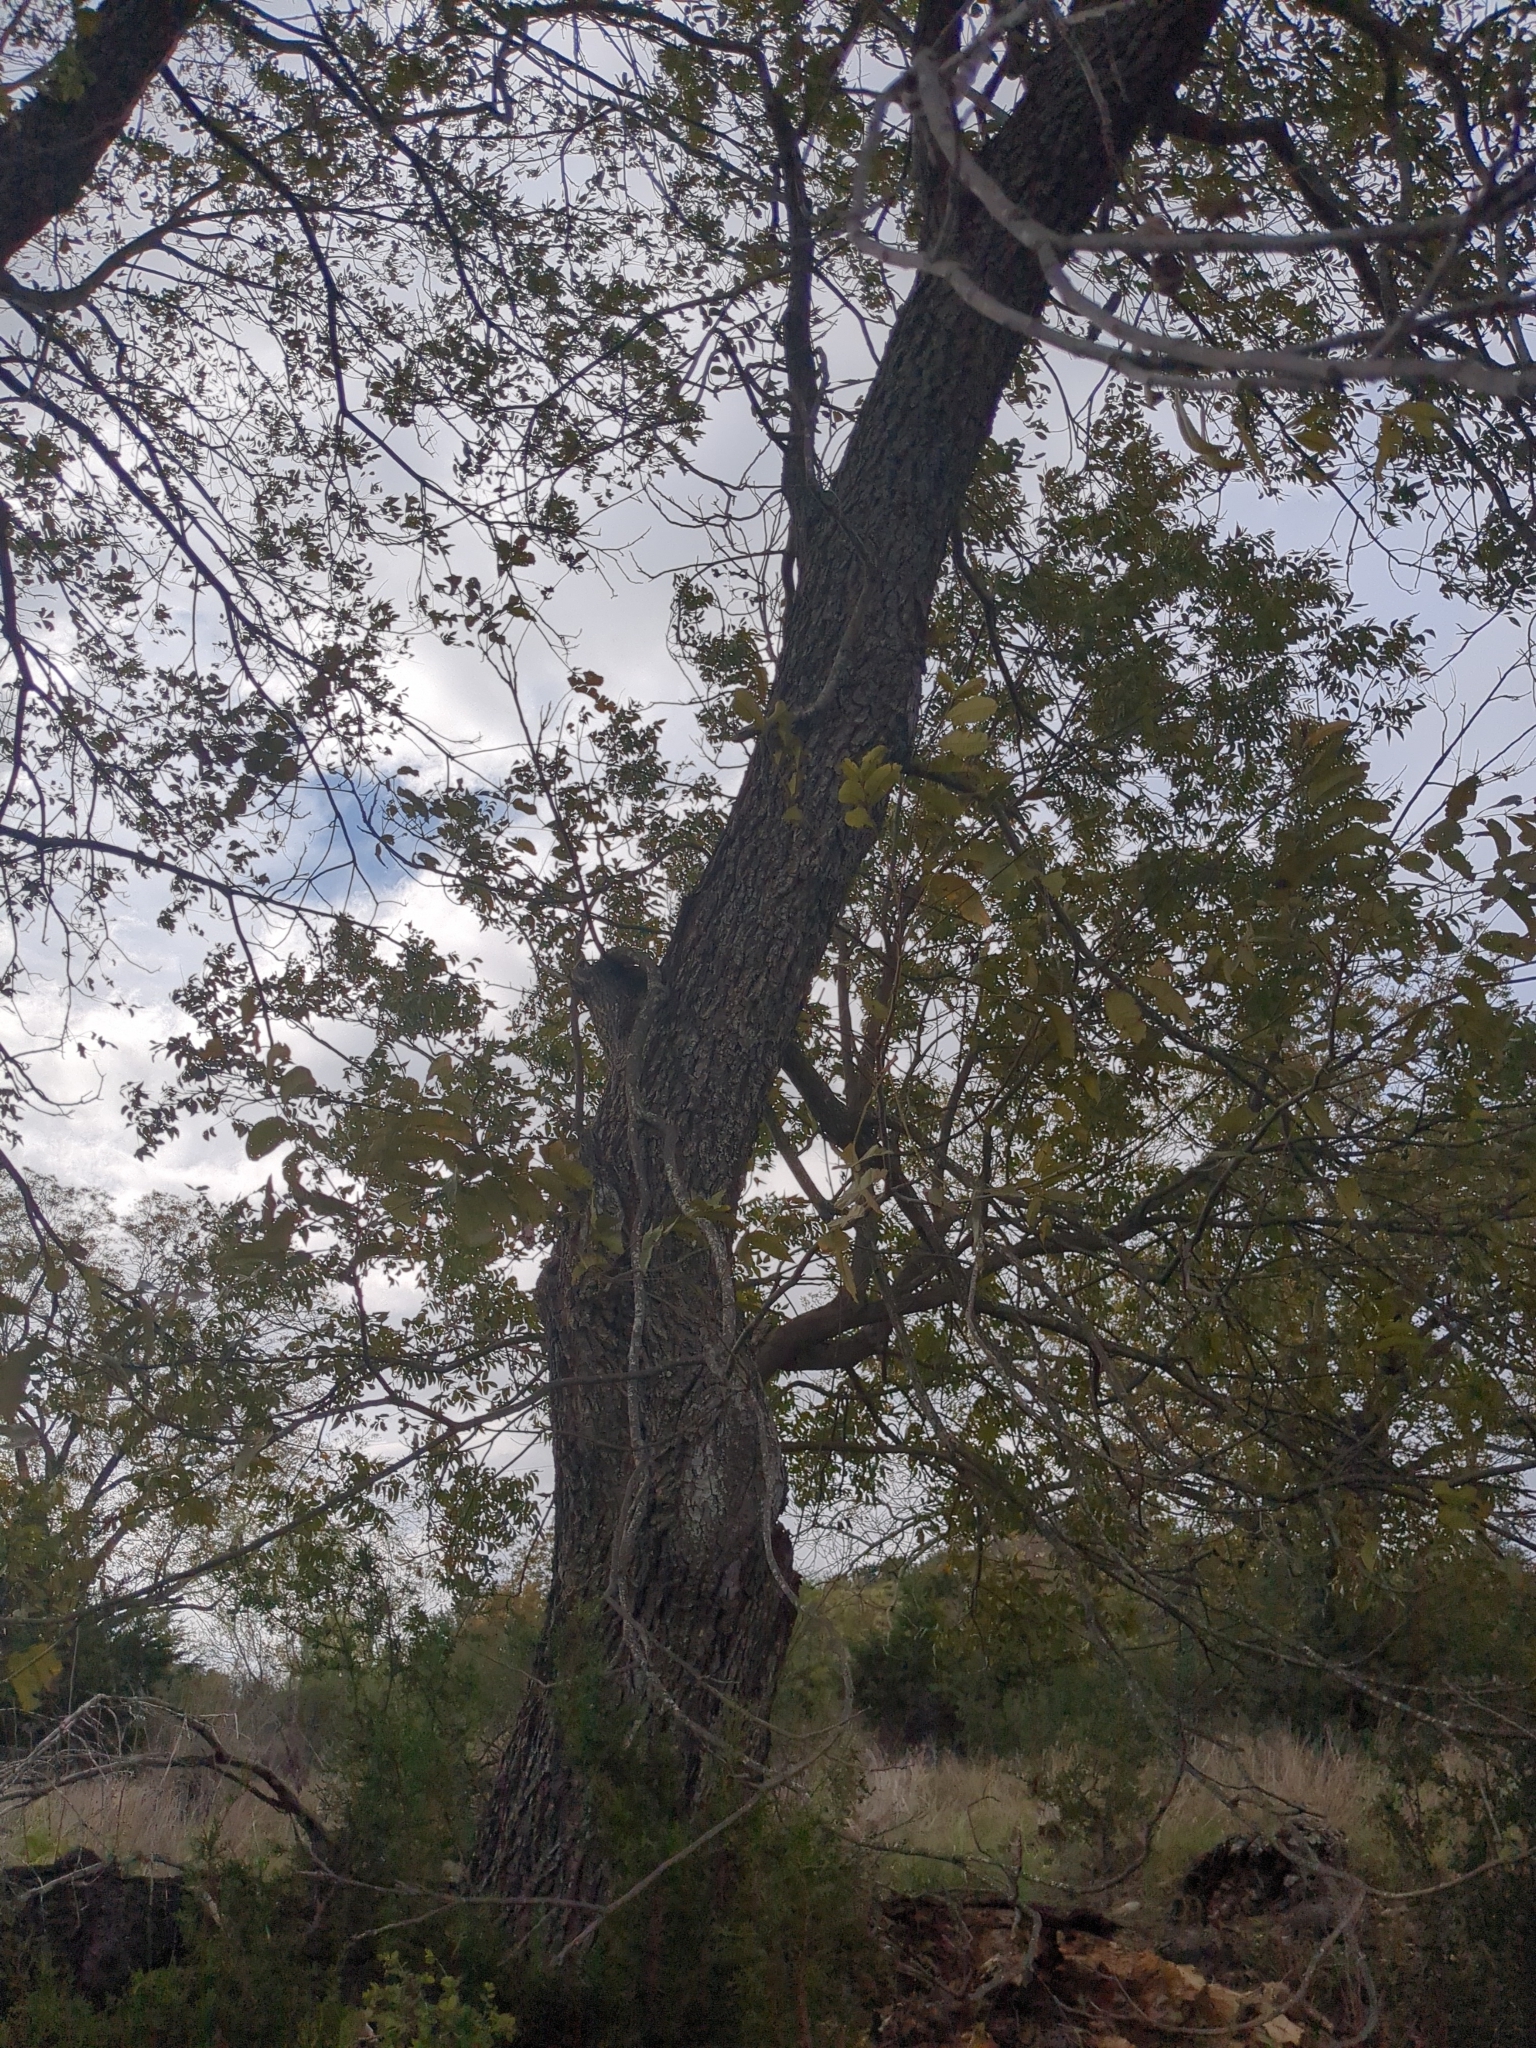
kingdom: Plantae
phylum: Tracheophyta
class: Magnoliopsida
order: Fagales
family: Juglandaceae
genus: Carya
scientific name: Carya illinoinensis
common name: Pecan
